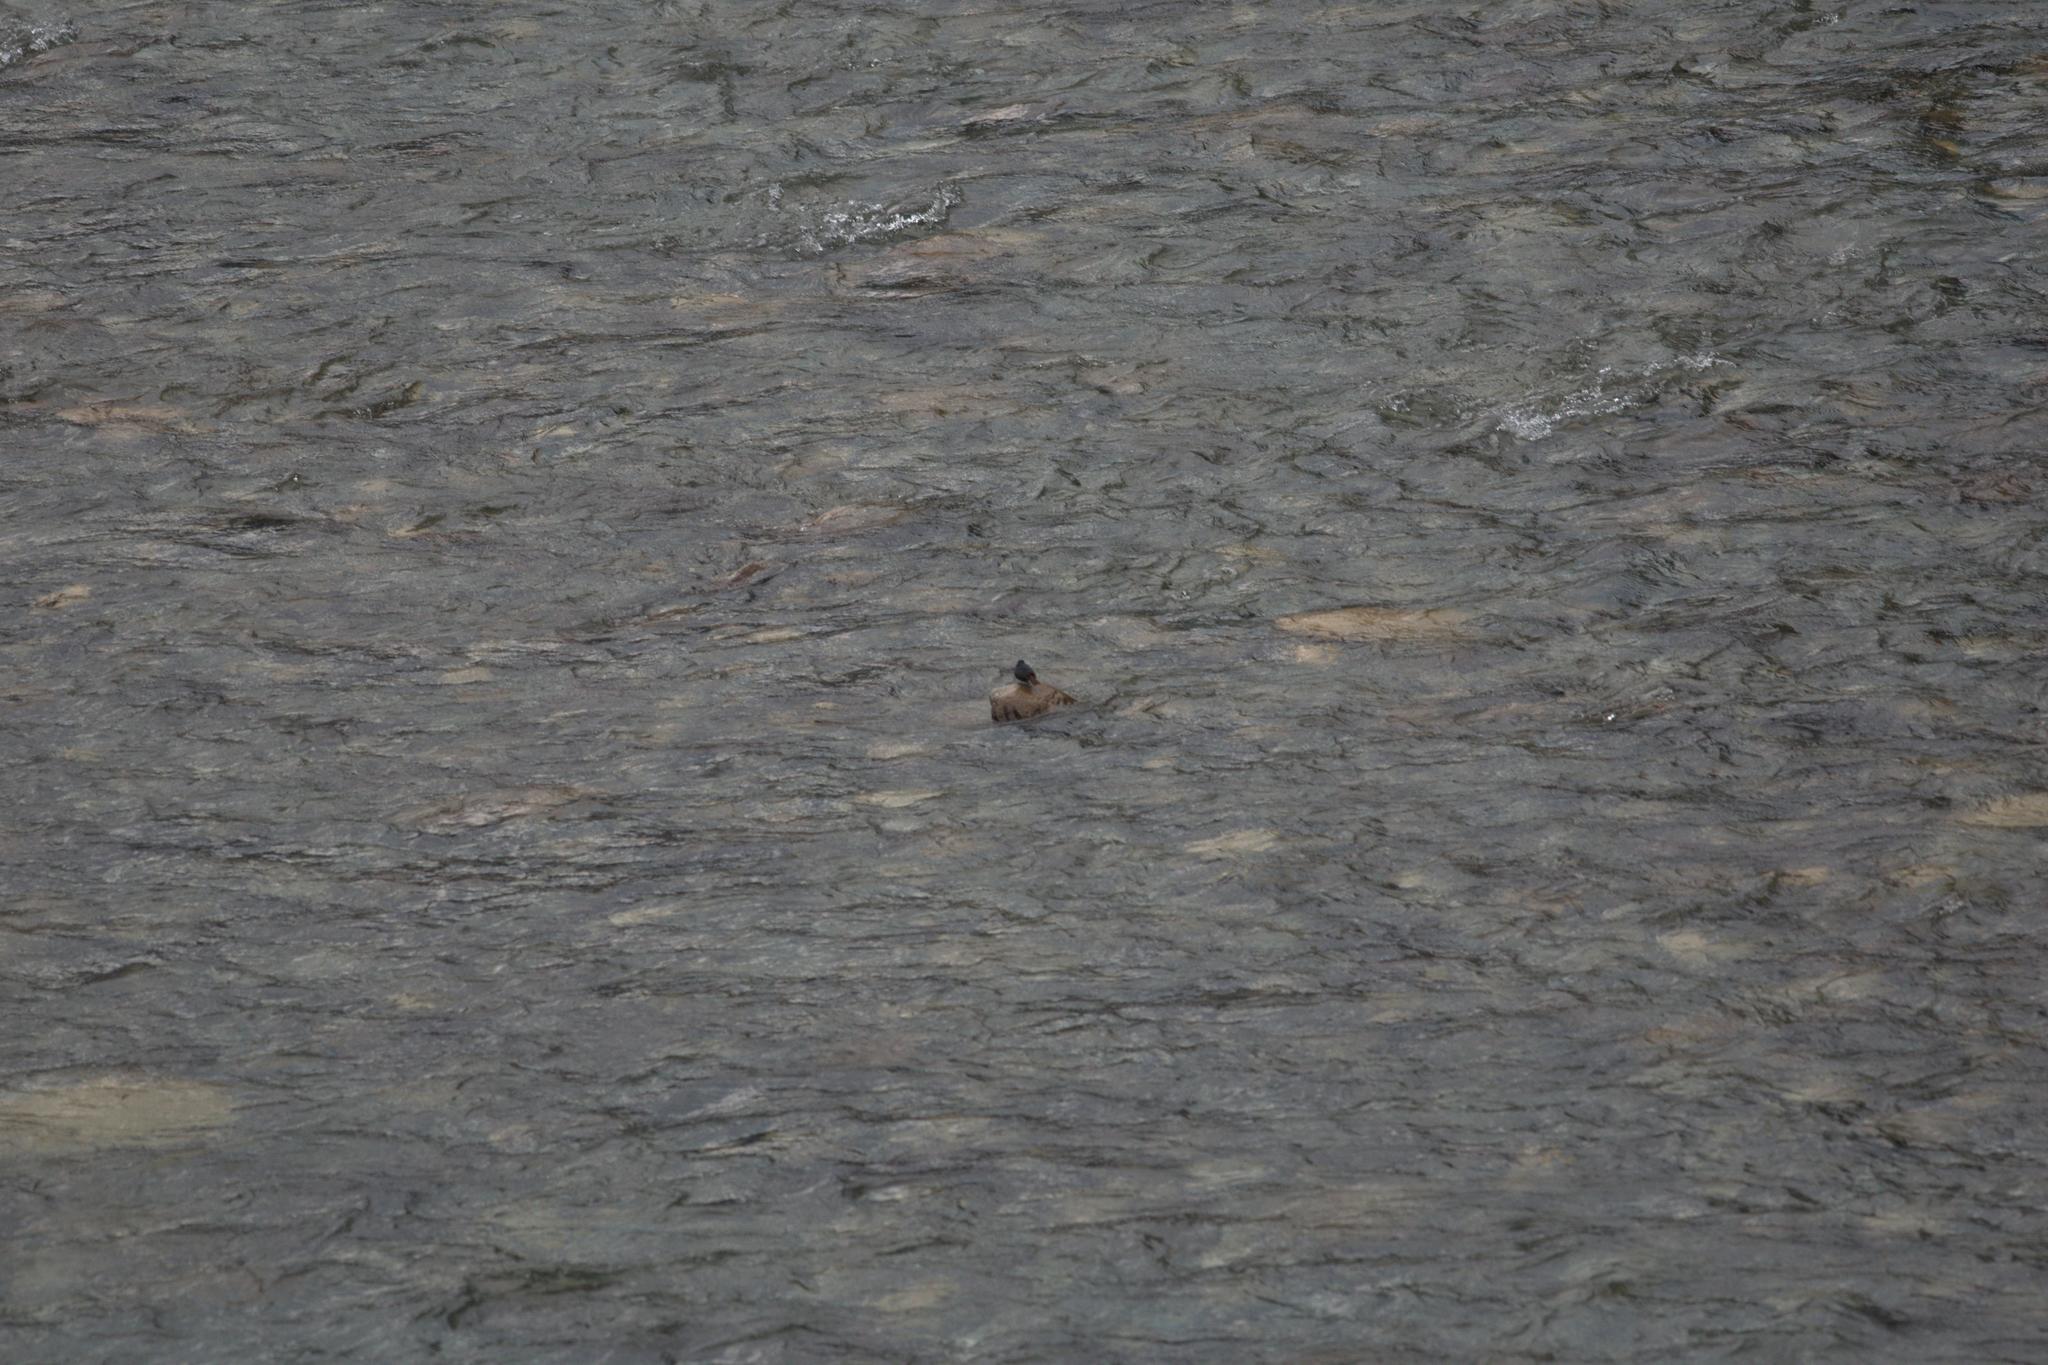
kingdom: Animalia
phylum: Chordata
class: Aves
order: Passeriformes
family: Muscicapidae
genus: Phoenicurus
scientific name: Phoenicurus fuliginosus
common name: Plumbeous water redstart
